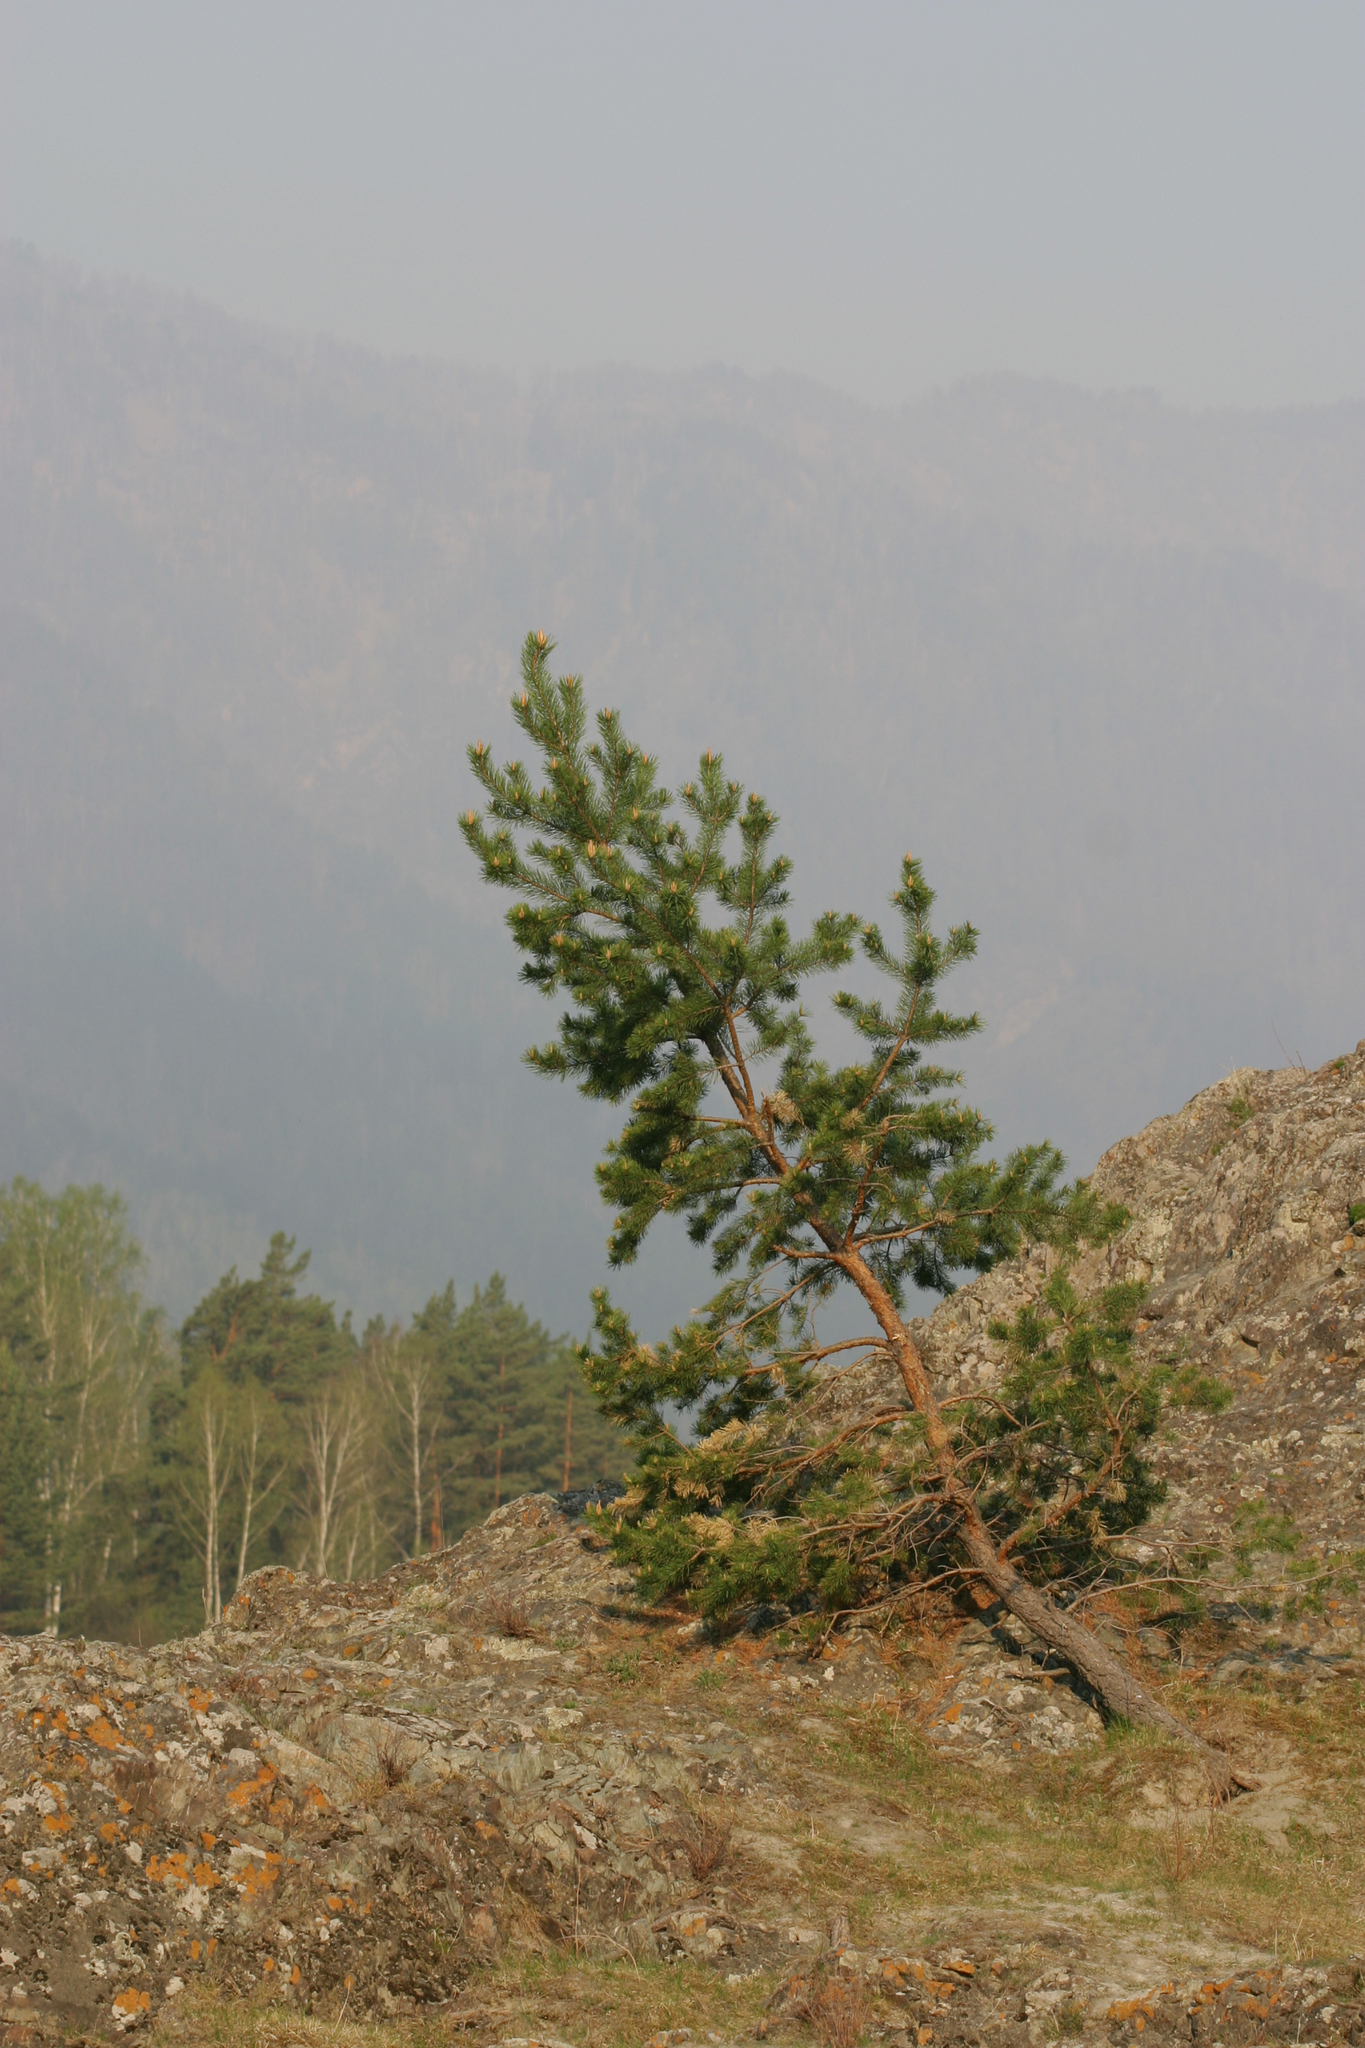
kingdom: Plantae
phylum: Tracheophyta
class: Pinopsida
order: Pinales
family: Pinaceae
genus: Pinus
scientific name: Pinus sylvestris
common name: Scots pine
